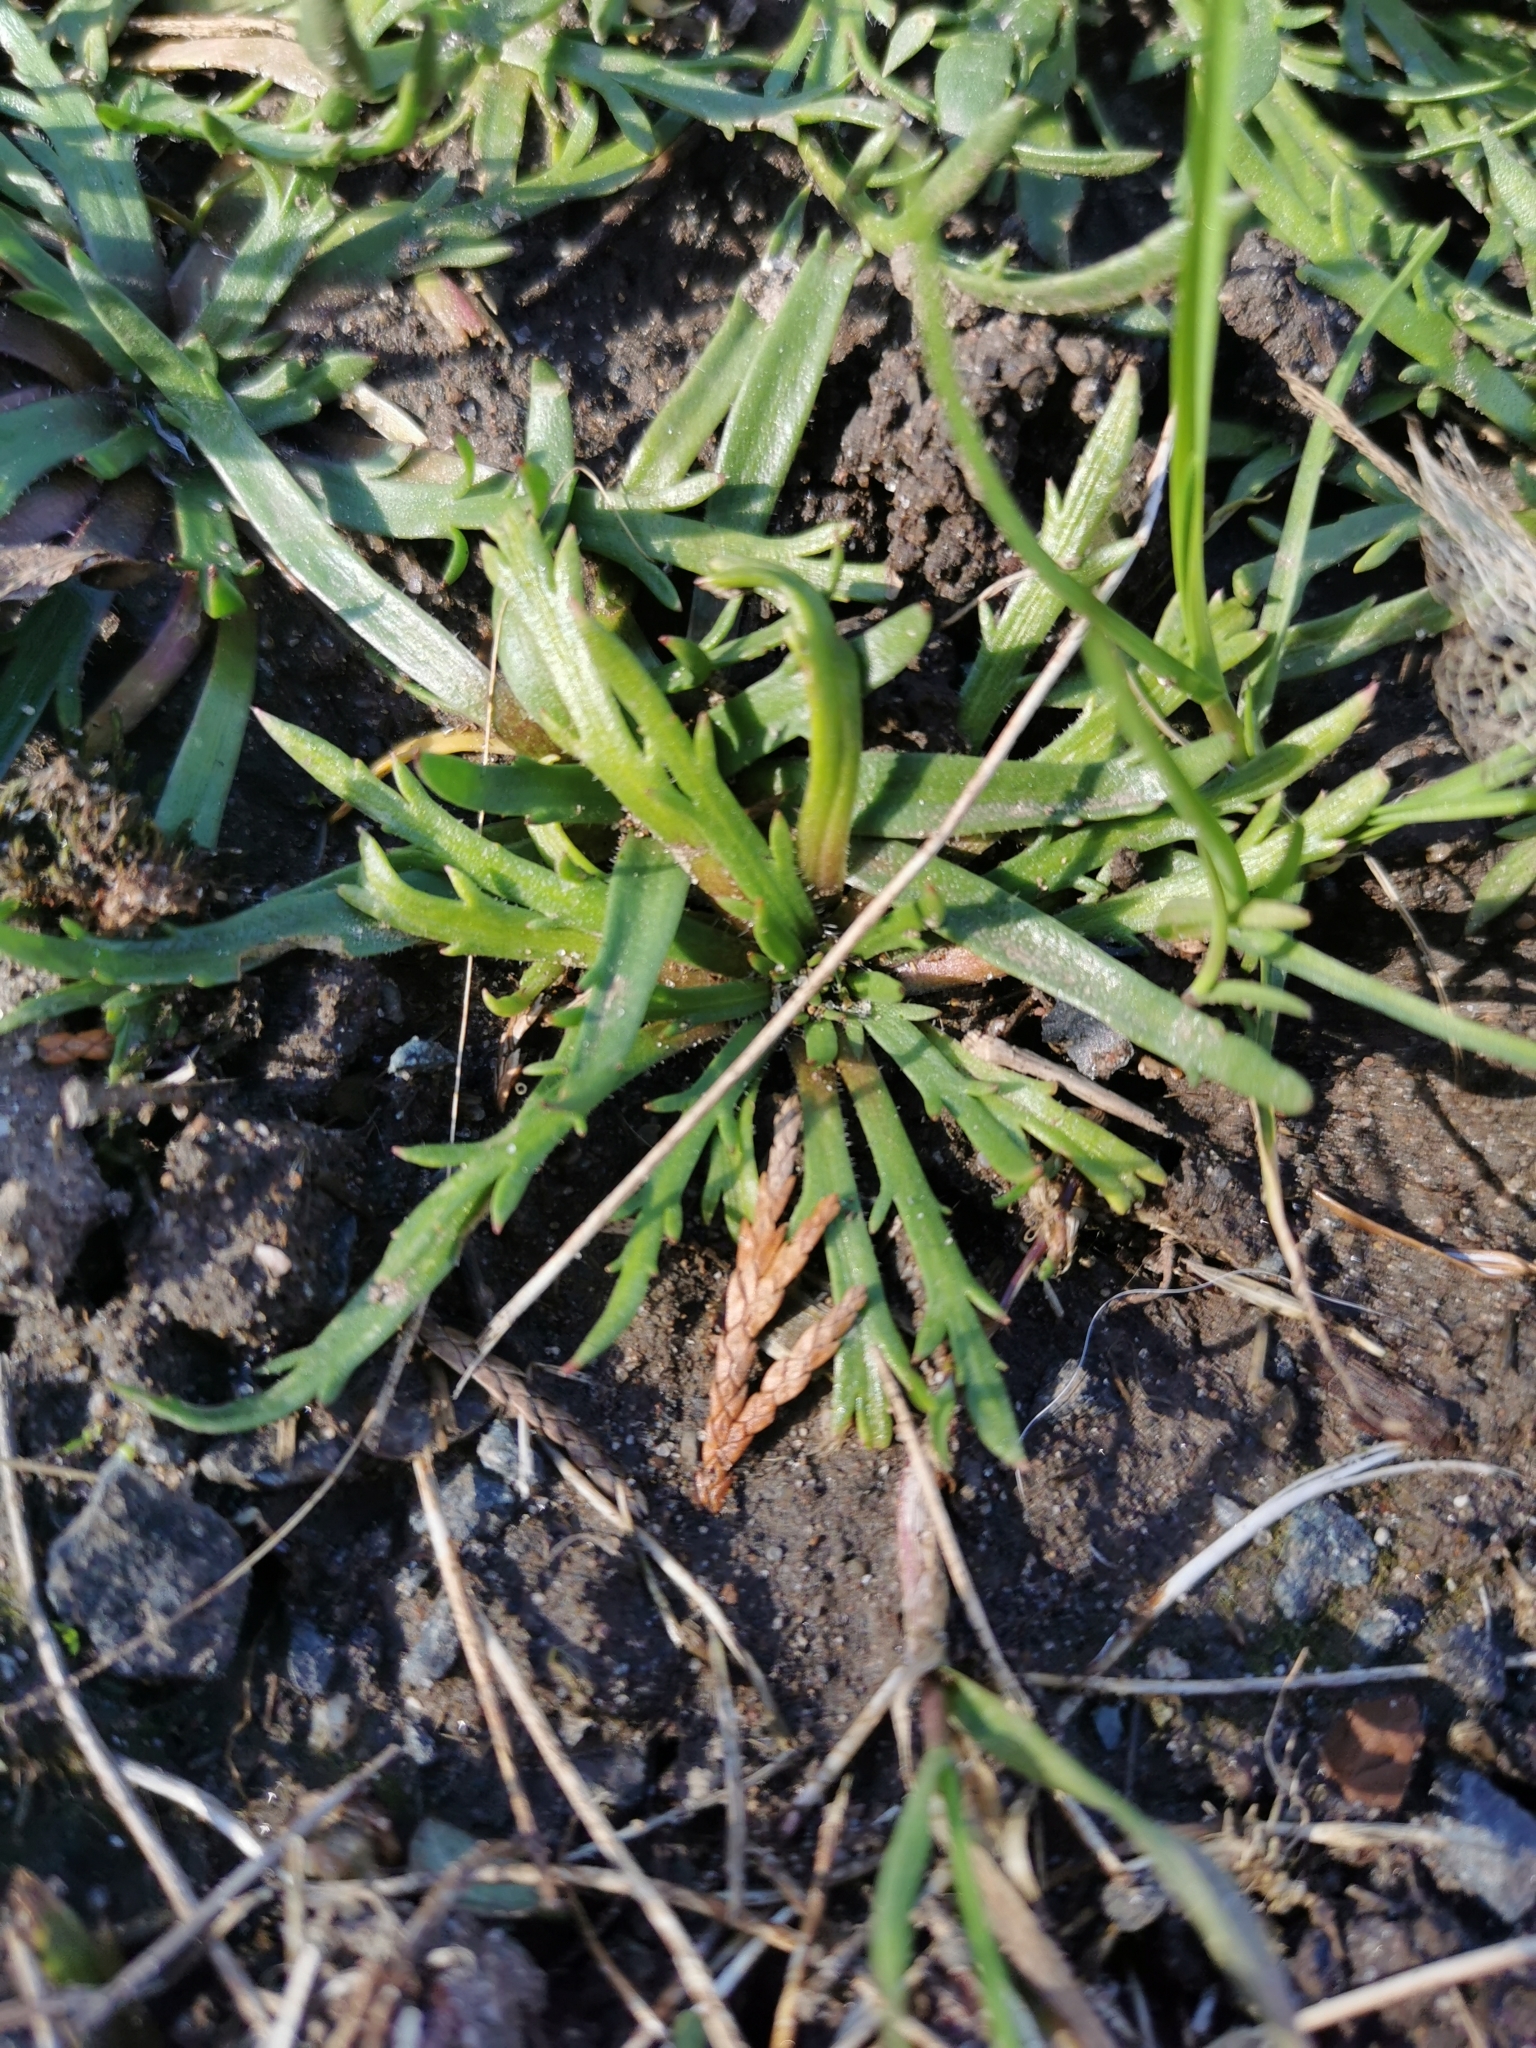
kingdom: Plantae
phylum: Tracheophyta
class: Magnoliopsida
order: Lamiales
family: Plantaginaceae
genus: Plantago
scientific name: Plantago coronopus
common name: Buck's-horn plantain
